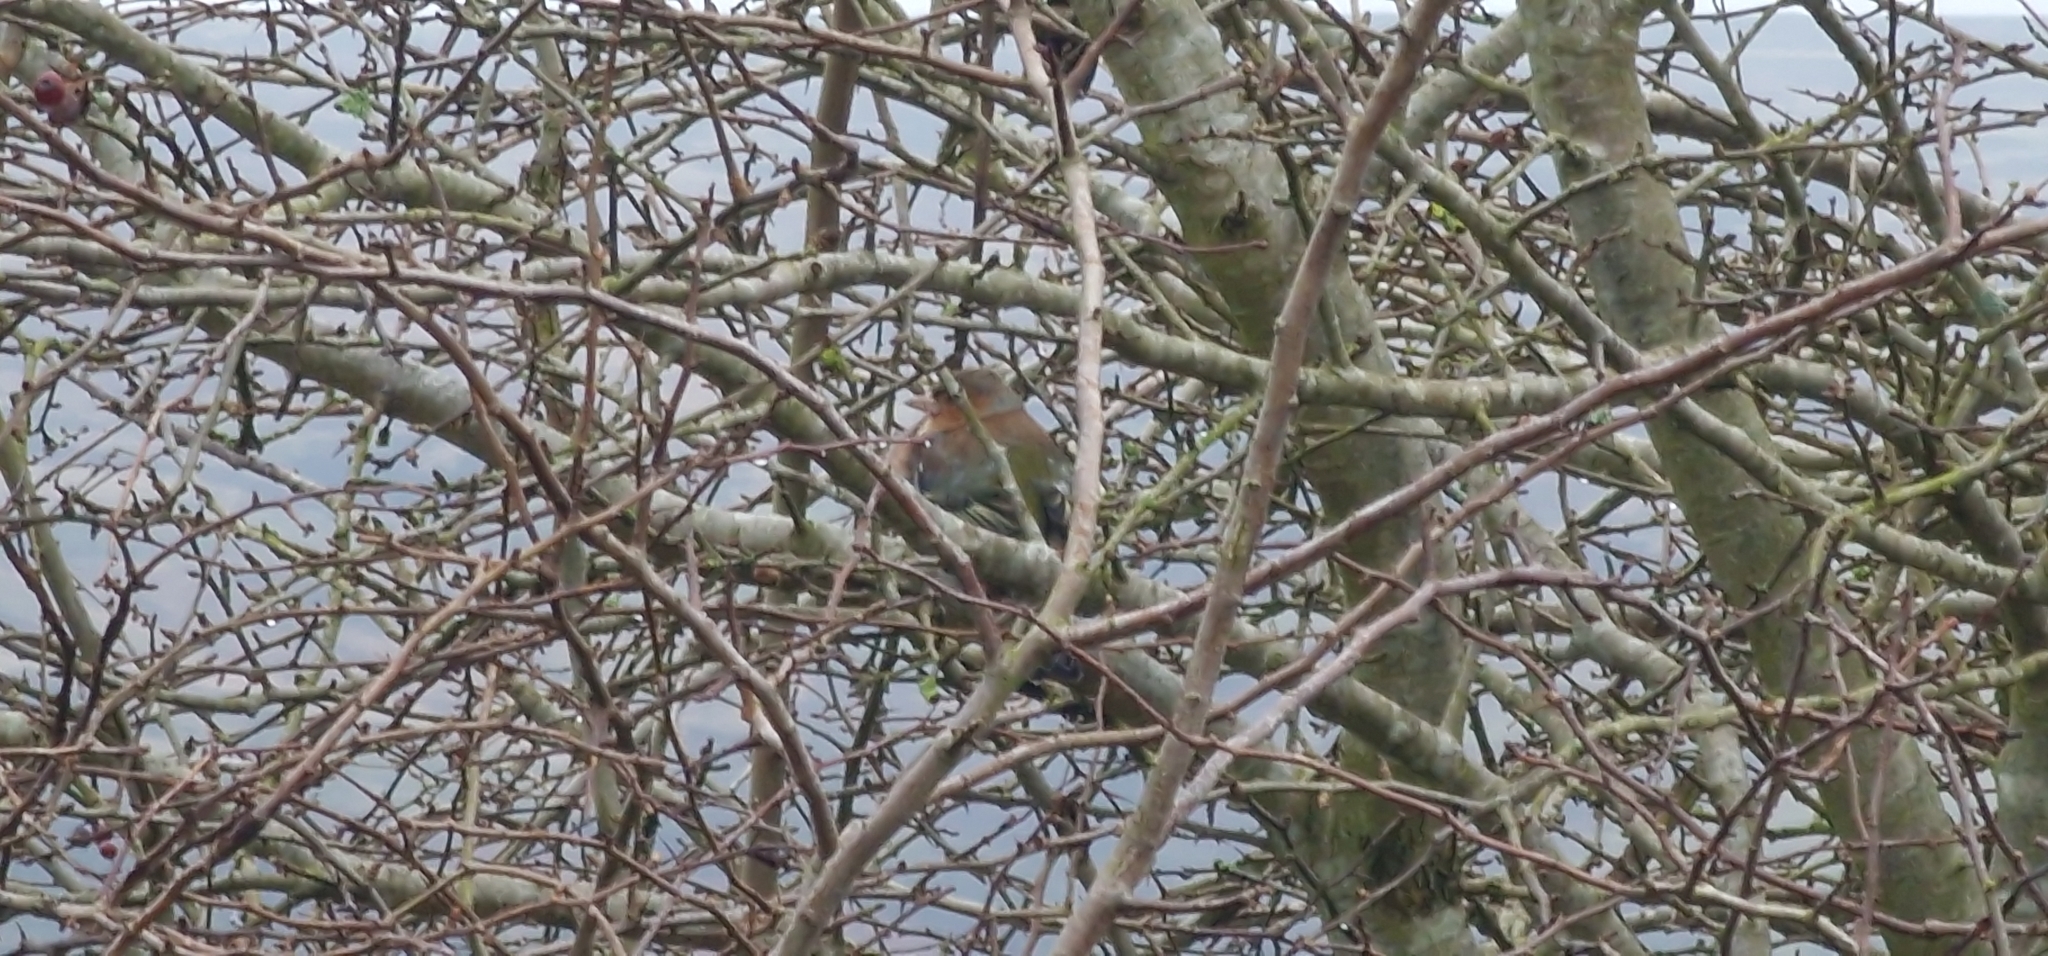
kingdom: Animalia
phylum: Chordata
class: Aves
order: Passeriformes
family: Fringillidae
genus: Fringilla
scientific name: Fringilla coelebs
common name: Common chaffinch
